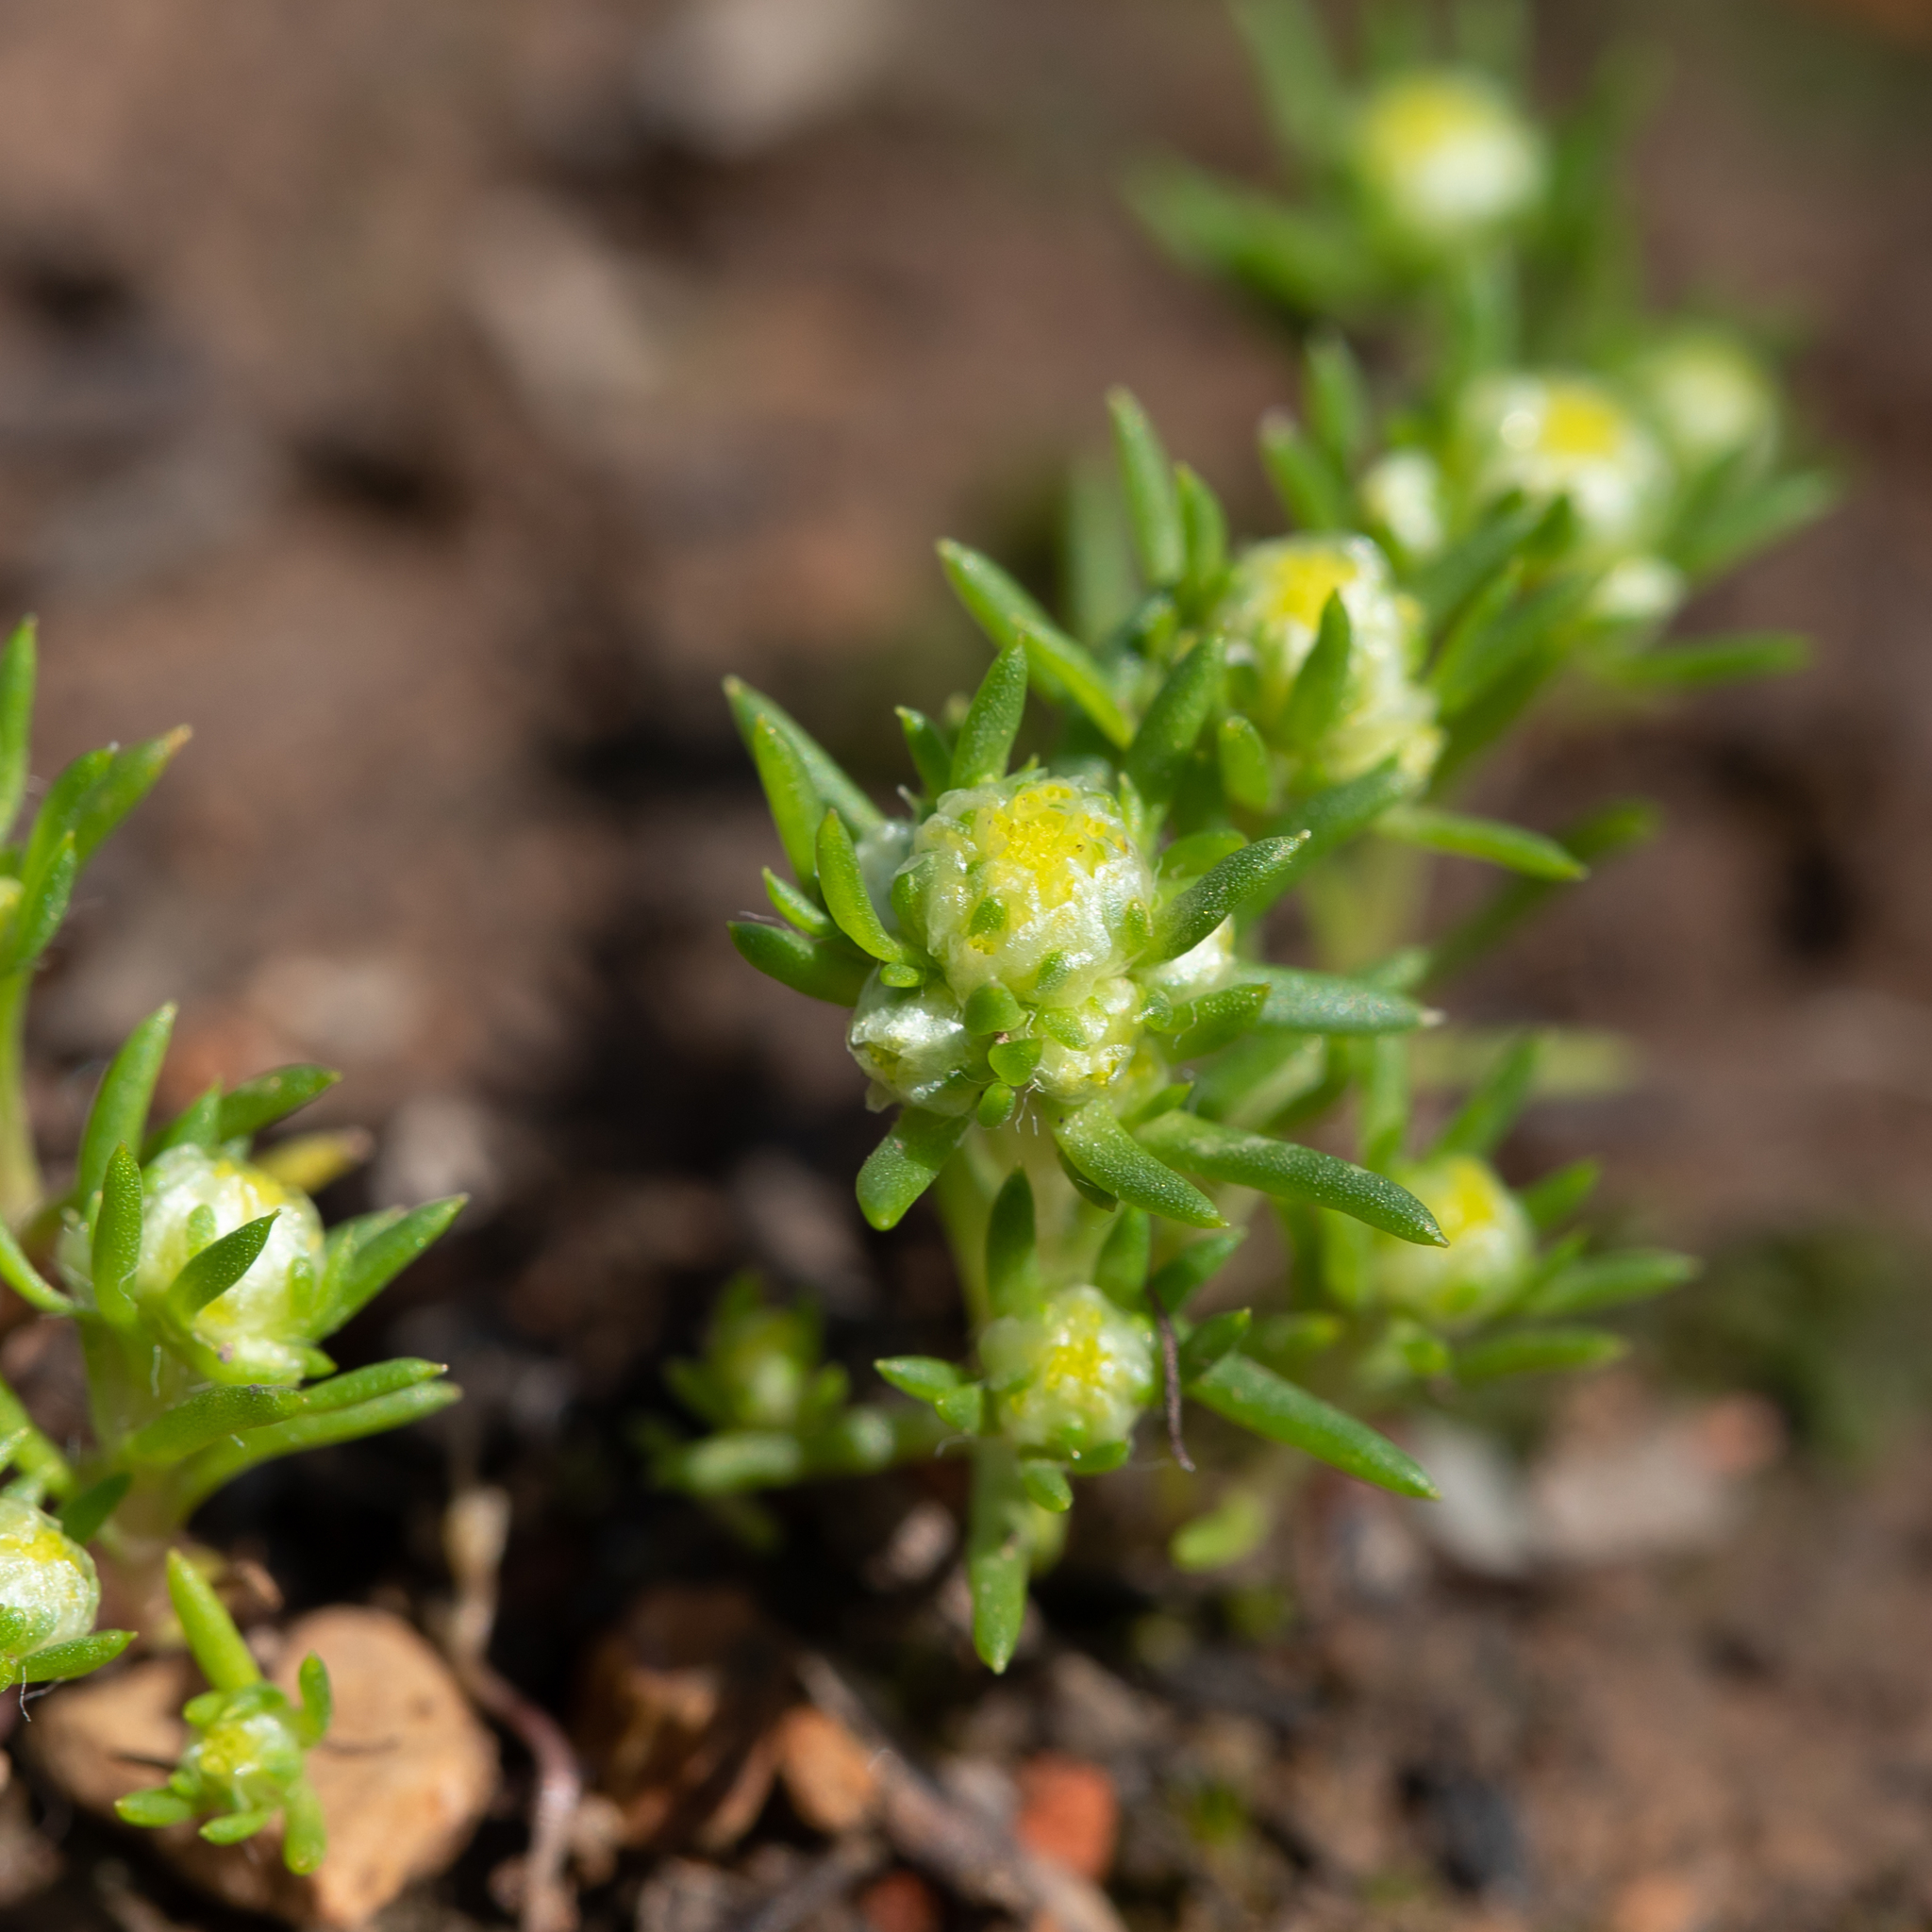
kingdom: Plantae
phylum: Tracheophyta
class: Magnoliopsida
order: Asterales
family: Asteraceae
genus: Siloxerus
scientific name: Siloxerus multiflorus
